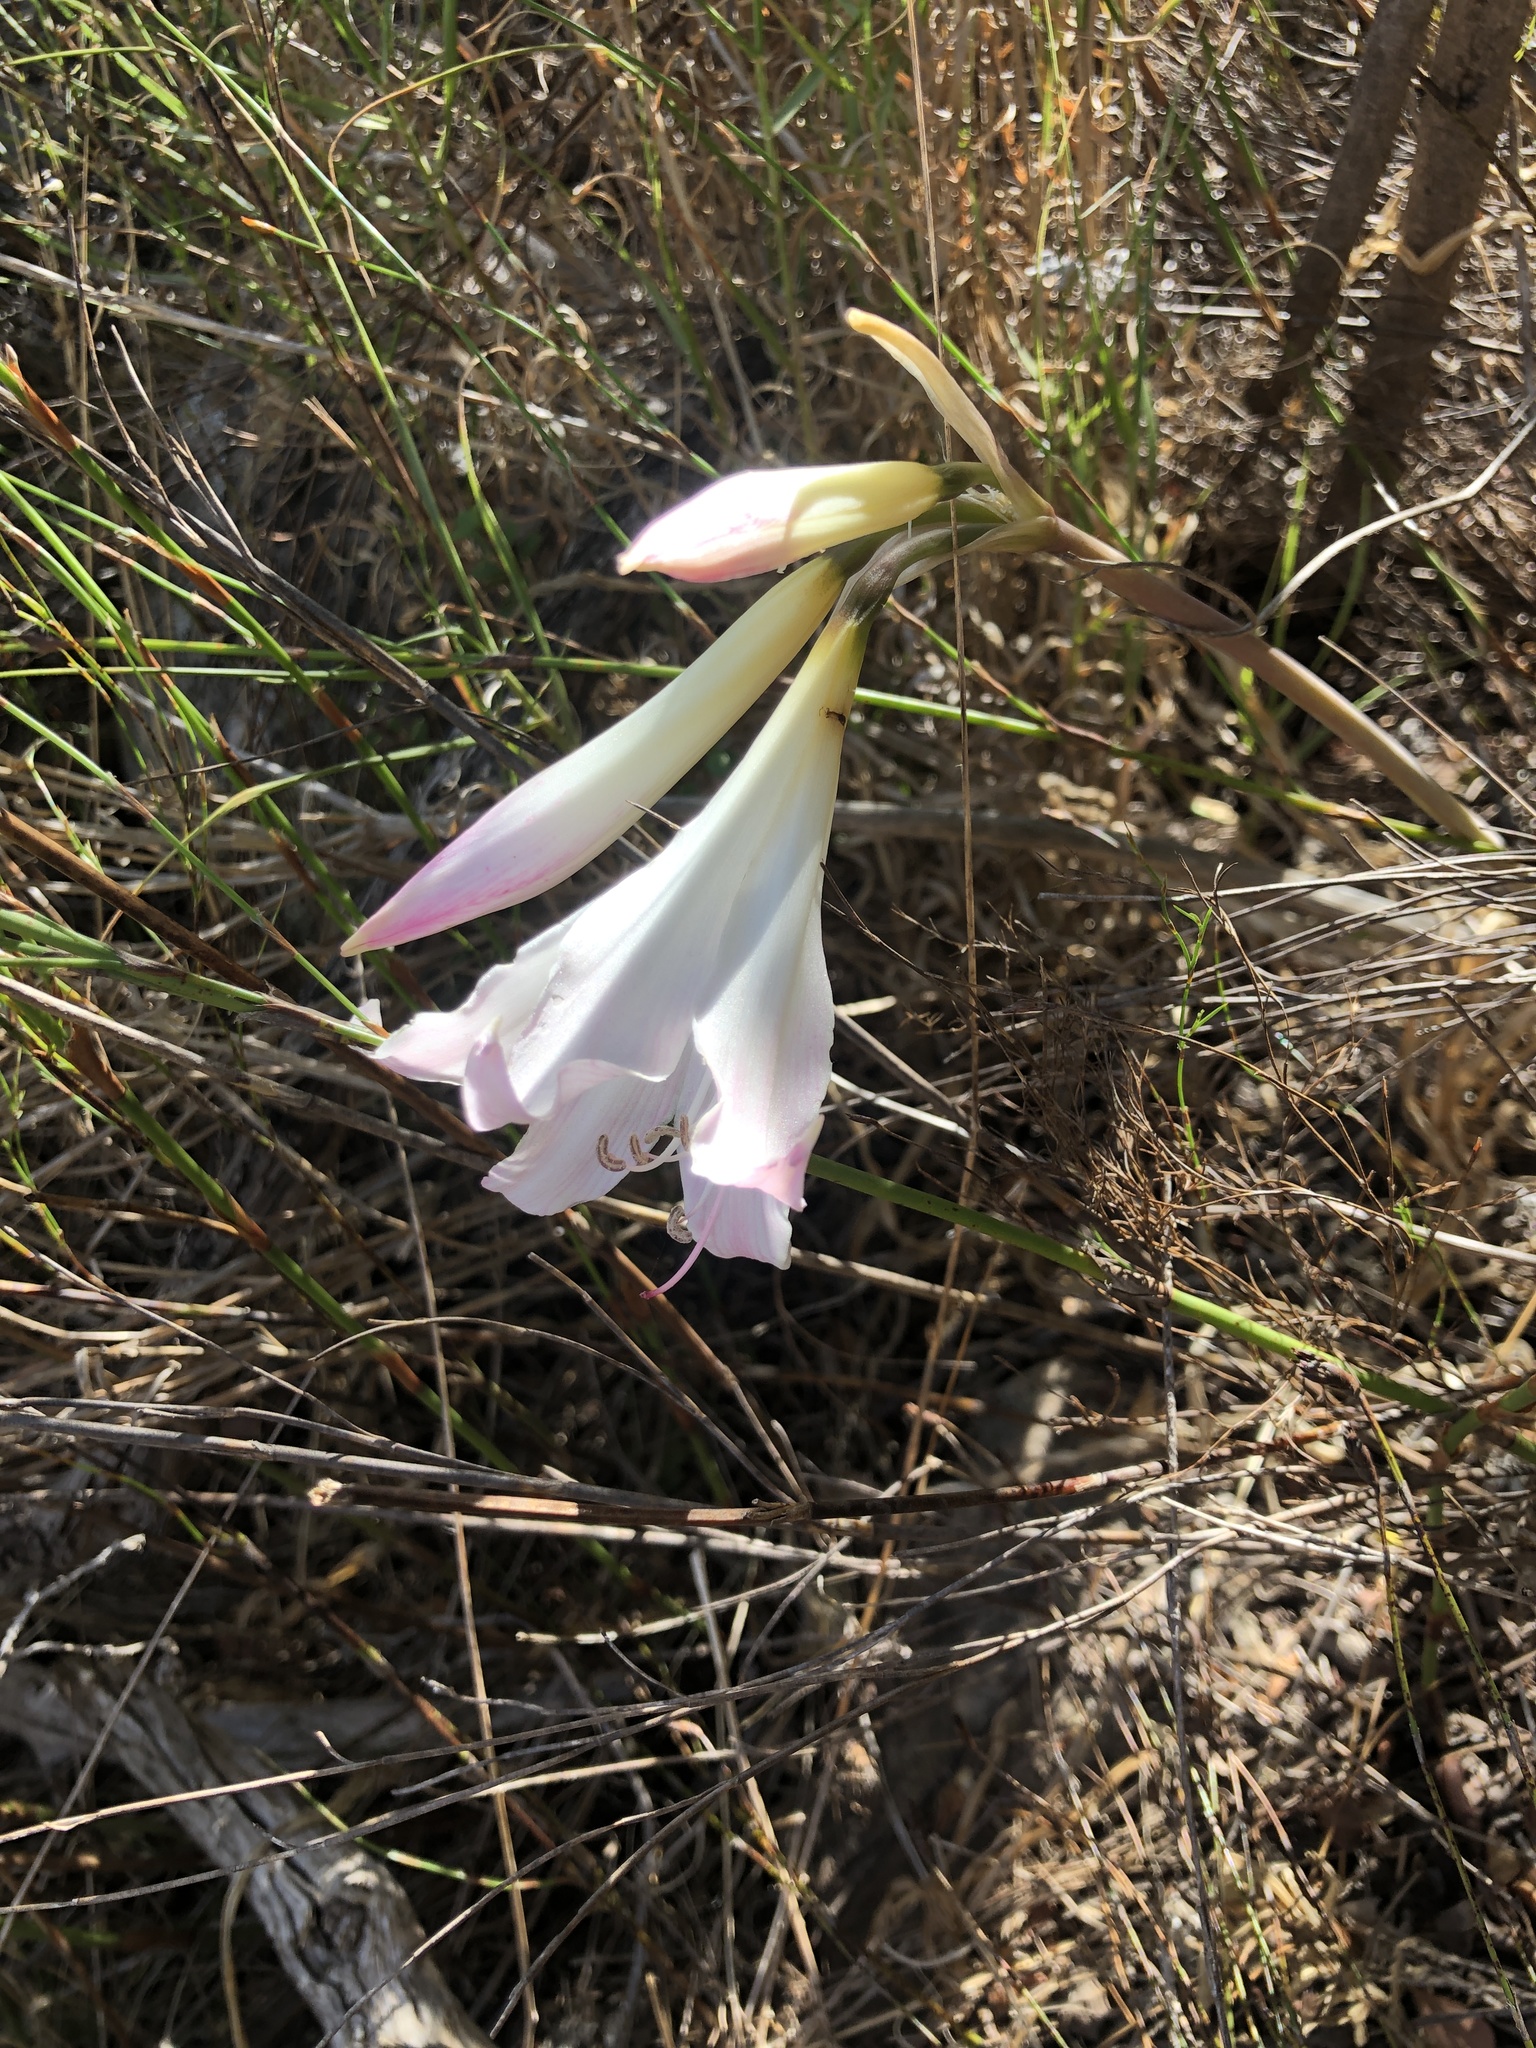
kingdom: Plantae
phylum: Tracheophyta
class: Liliopsida
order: Asparagales
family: Amaryllidaceae
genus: Amaryllis
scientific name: Amaryllis belladonna
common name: Jersey lily
